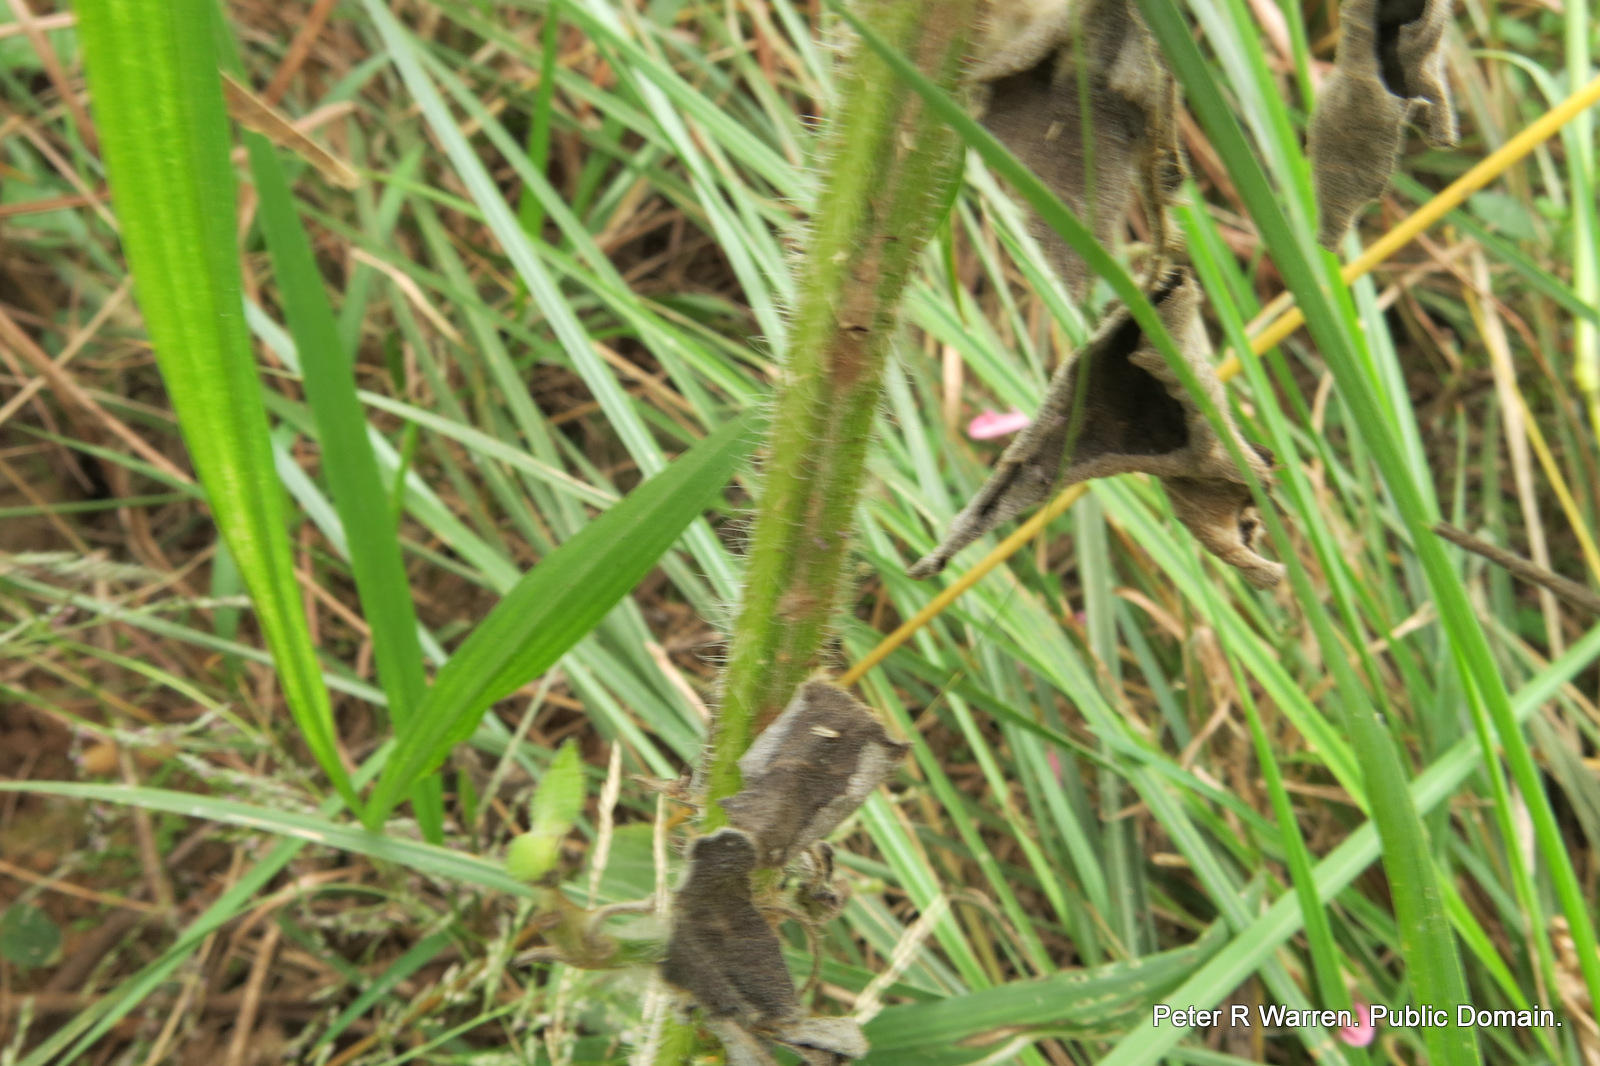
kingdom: Plantae
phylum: Tracheophyta
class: Magnoliopsida
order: Lamiales
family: Lamiaceae
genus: Salvia
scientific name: Salvia coccinea
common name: Blood sage
